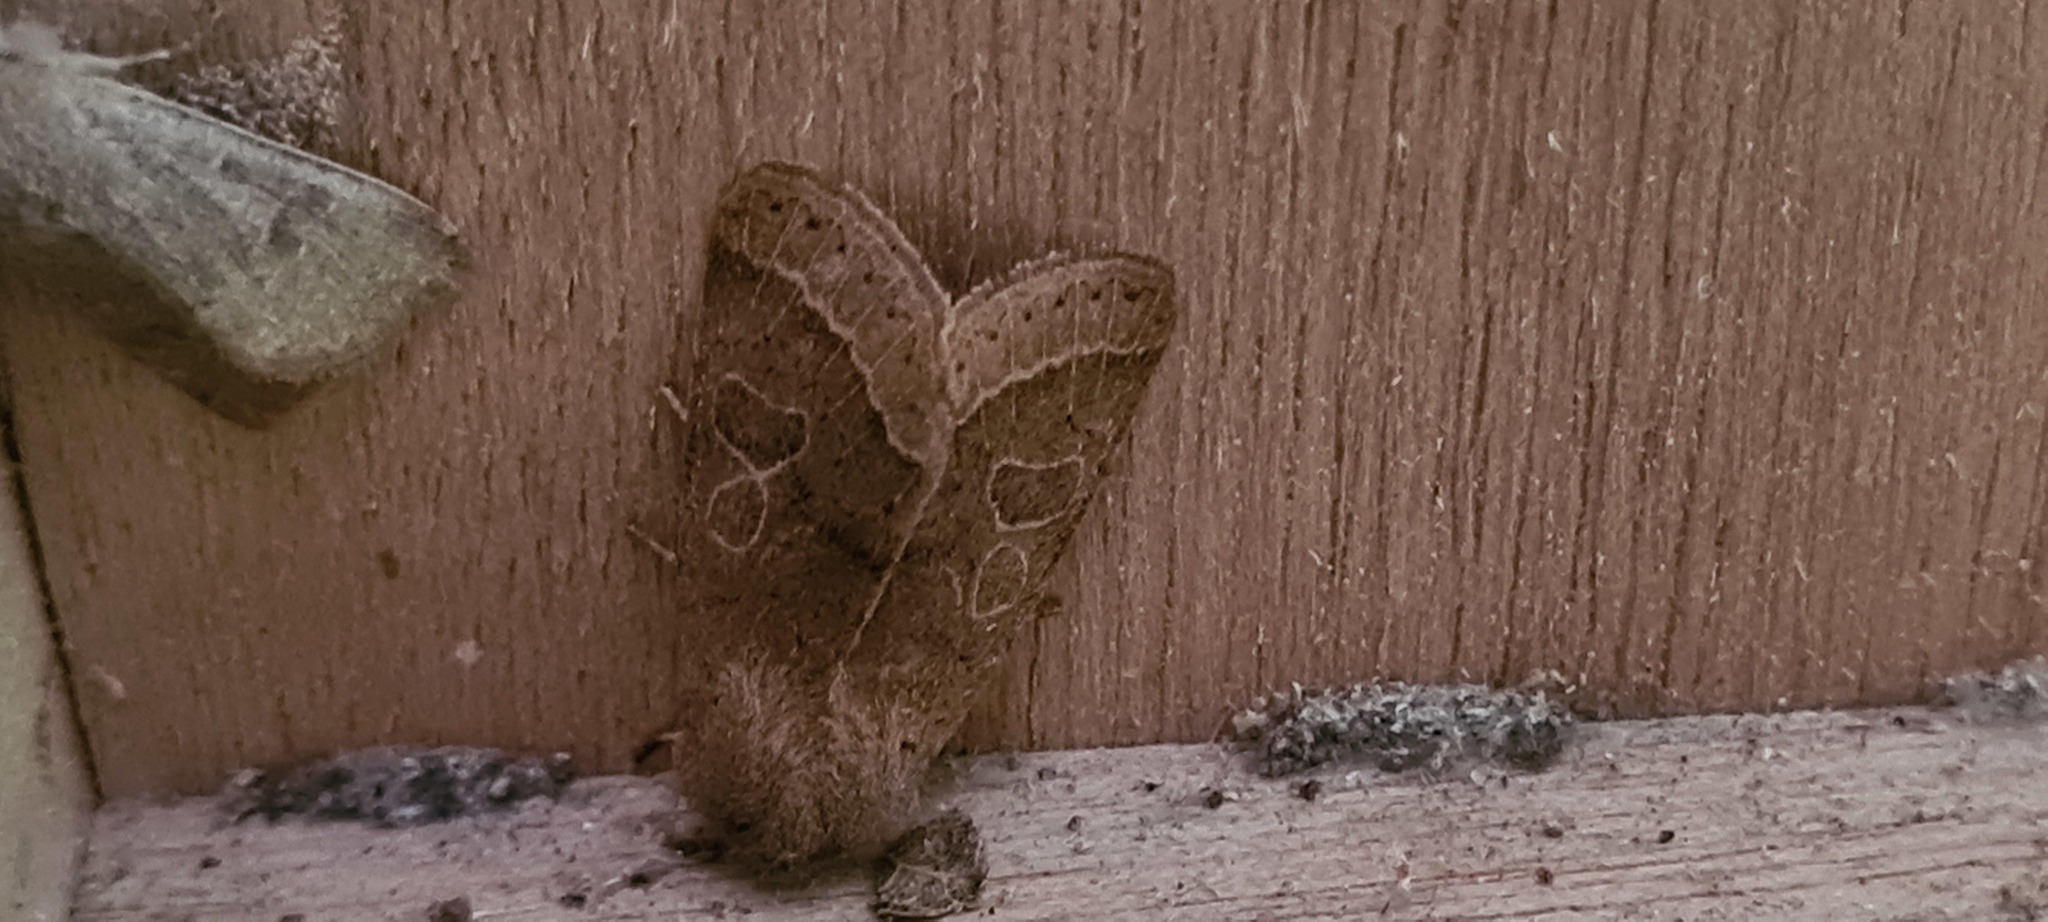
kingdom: Animalia
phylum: Arthropoda
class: Insecta
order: Lepidoptera
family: Noctuidae
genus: Orthosia
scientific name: Orthosia cerasi
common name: Common quaker
